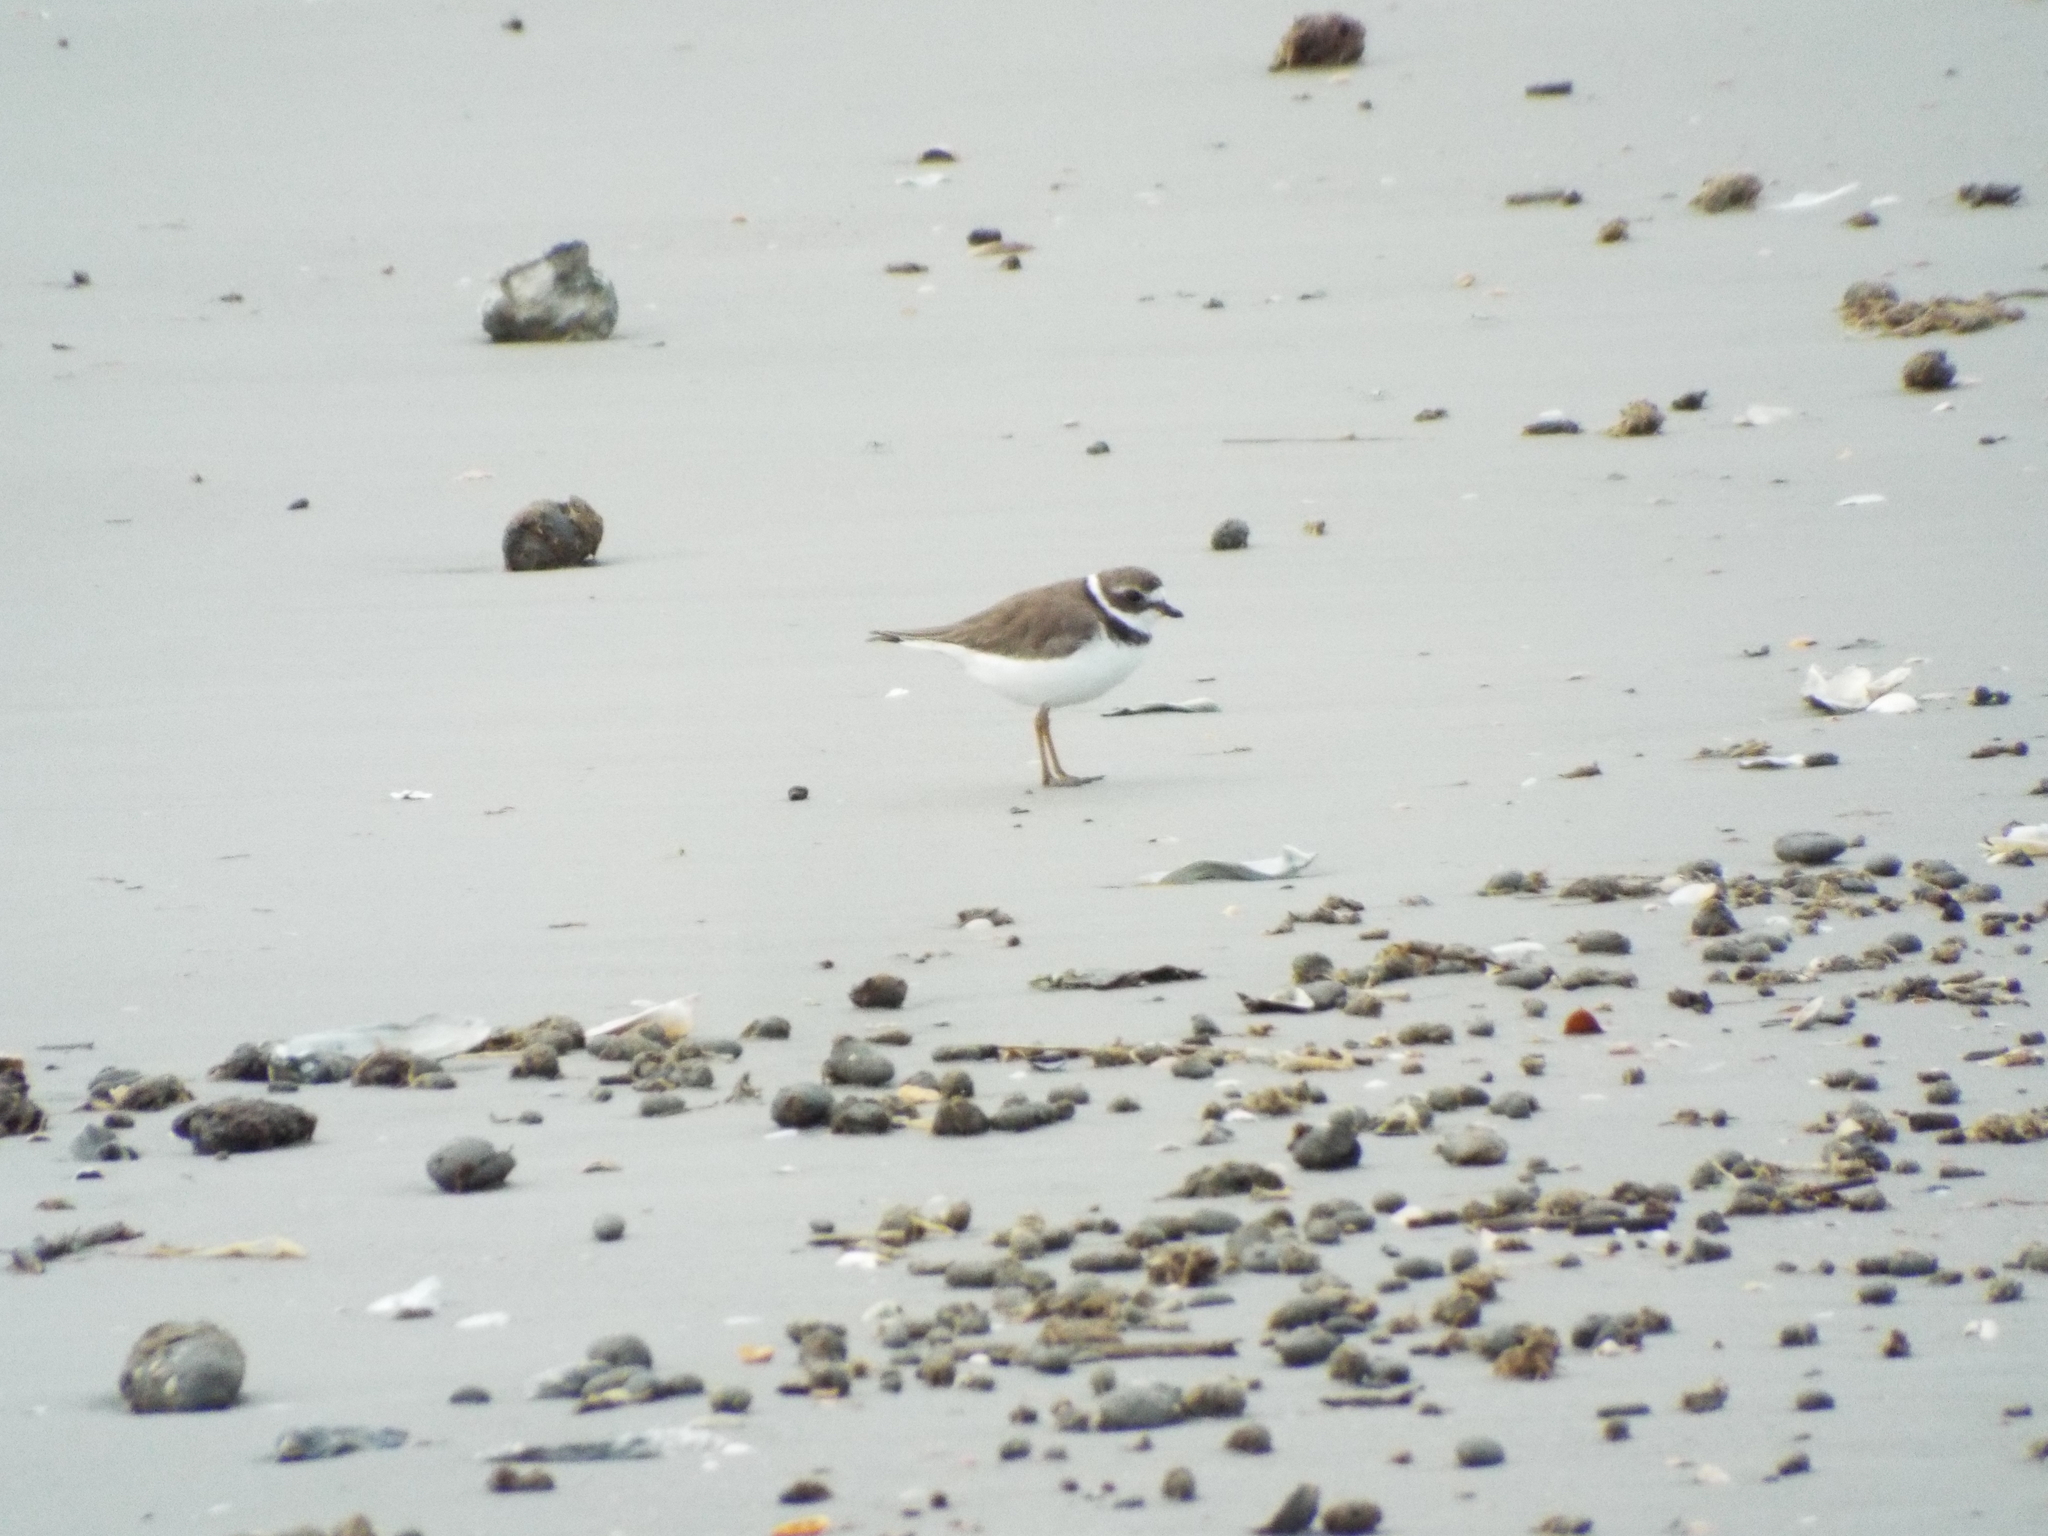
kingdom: Animalia
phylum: Chordata
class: Aves
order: Charadriiformes
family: Charadriidae
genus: Charadrius
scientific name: Charadrius semipalmatus
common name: Semipalmated plover
